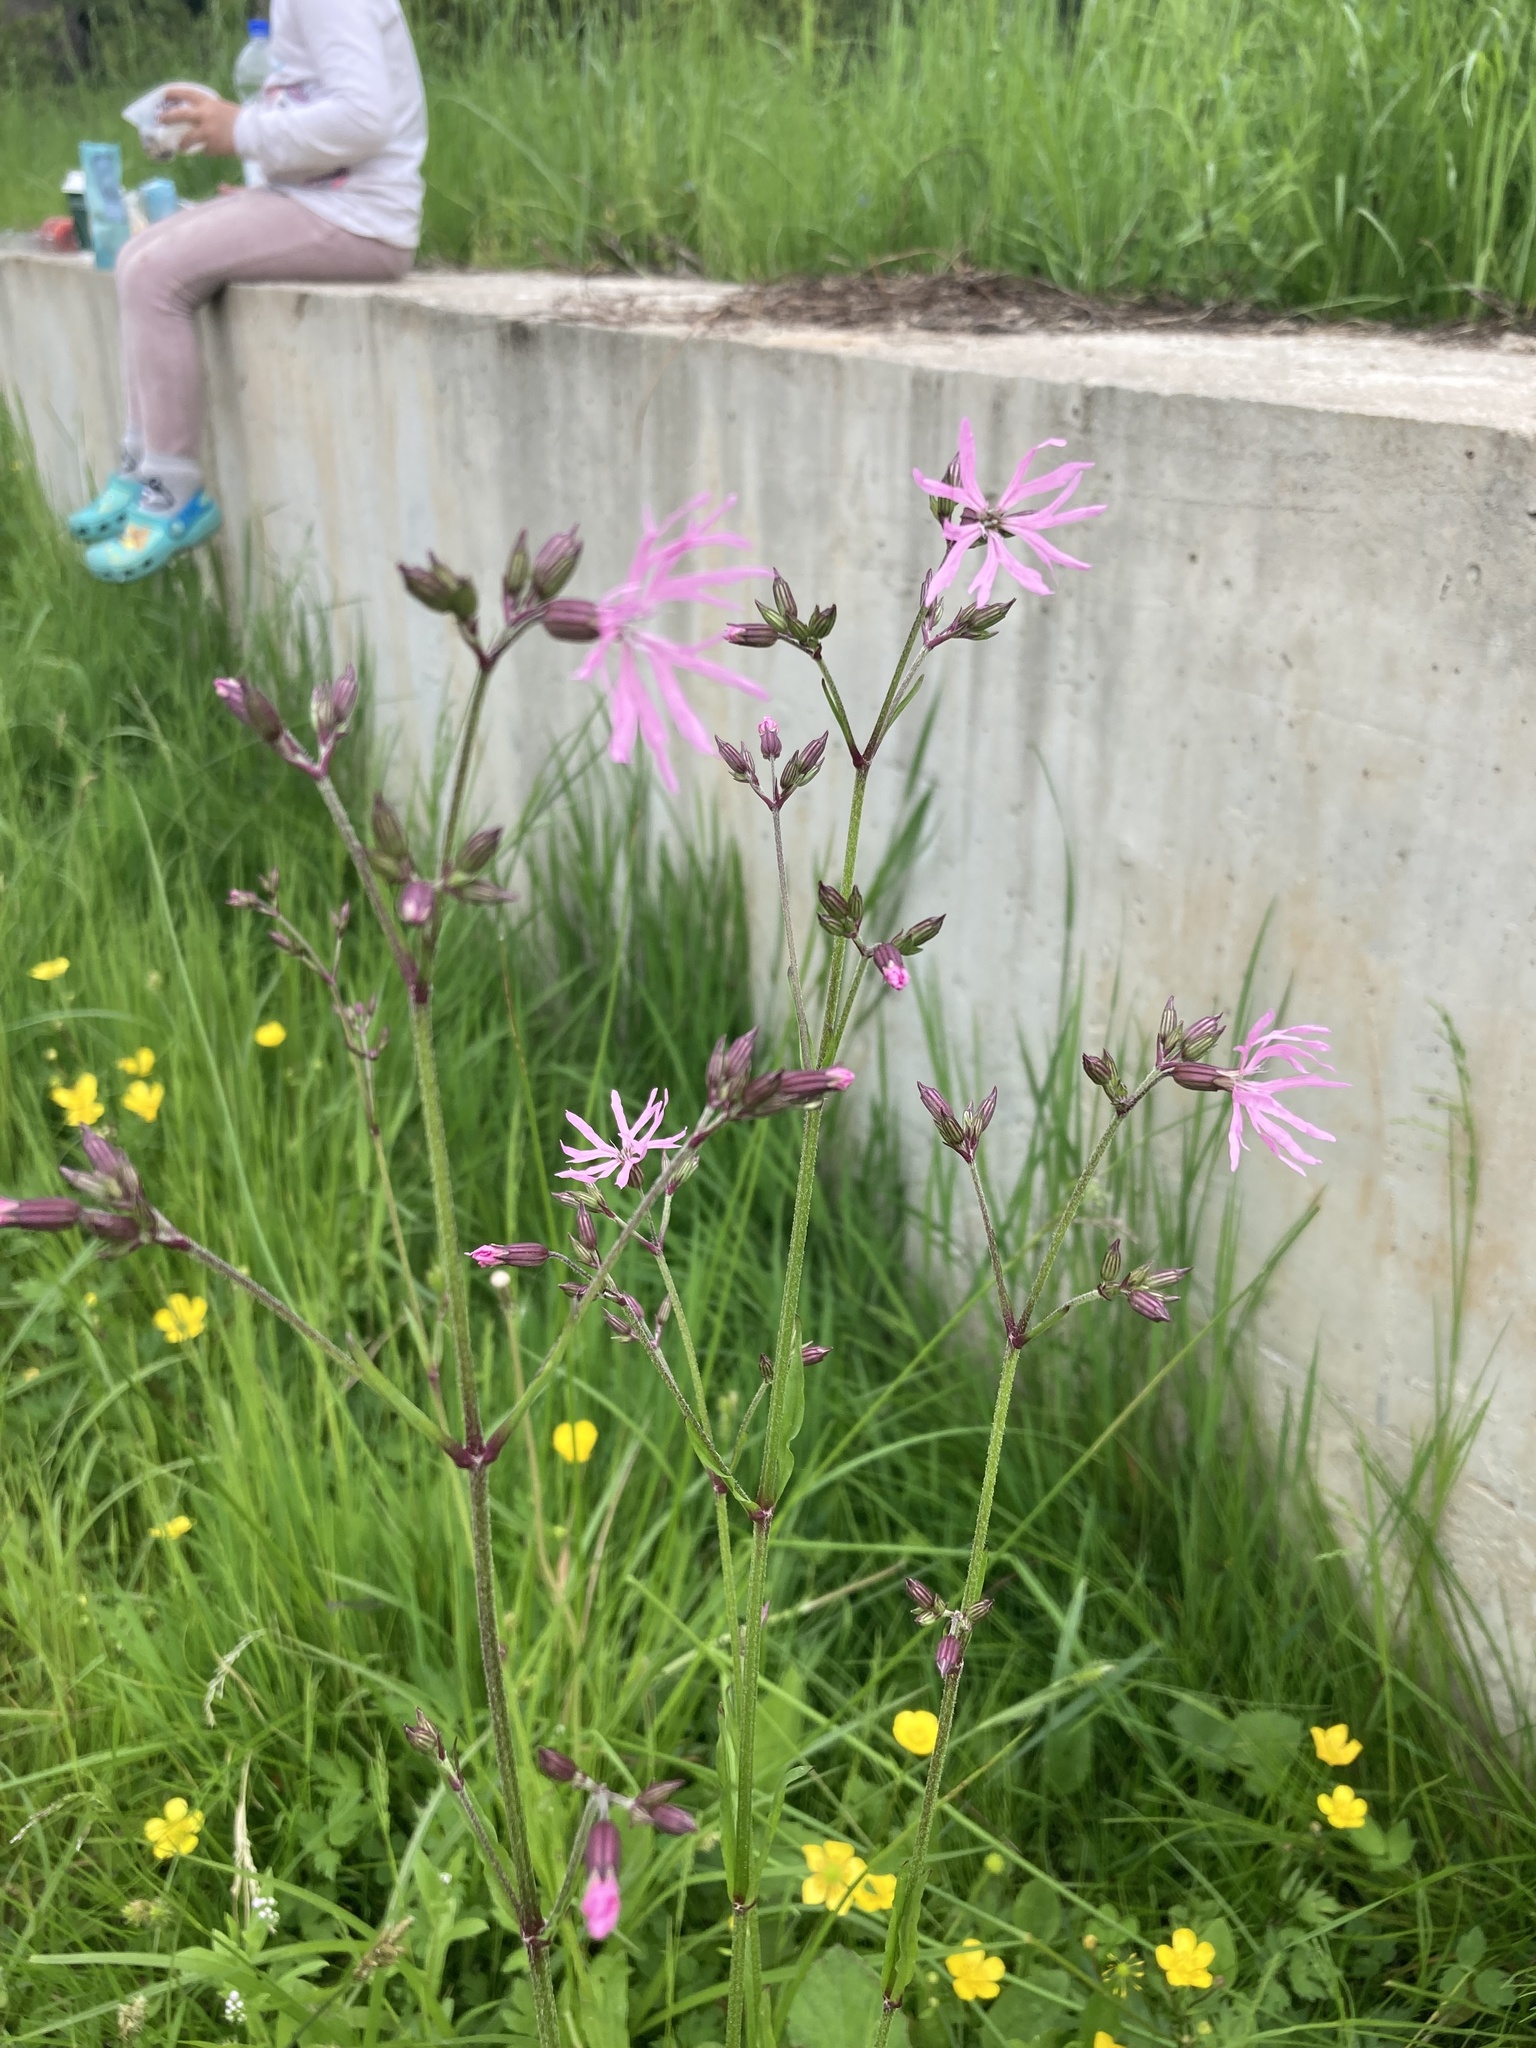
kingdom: Plantae
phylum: Tracheophyta
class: Magnoliopsida
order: Caryophyllales
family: Caryophyllaceae
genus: Silene
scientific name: Silene flos-cuculi
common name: Ragged-robin
